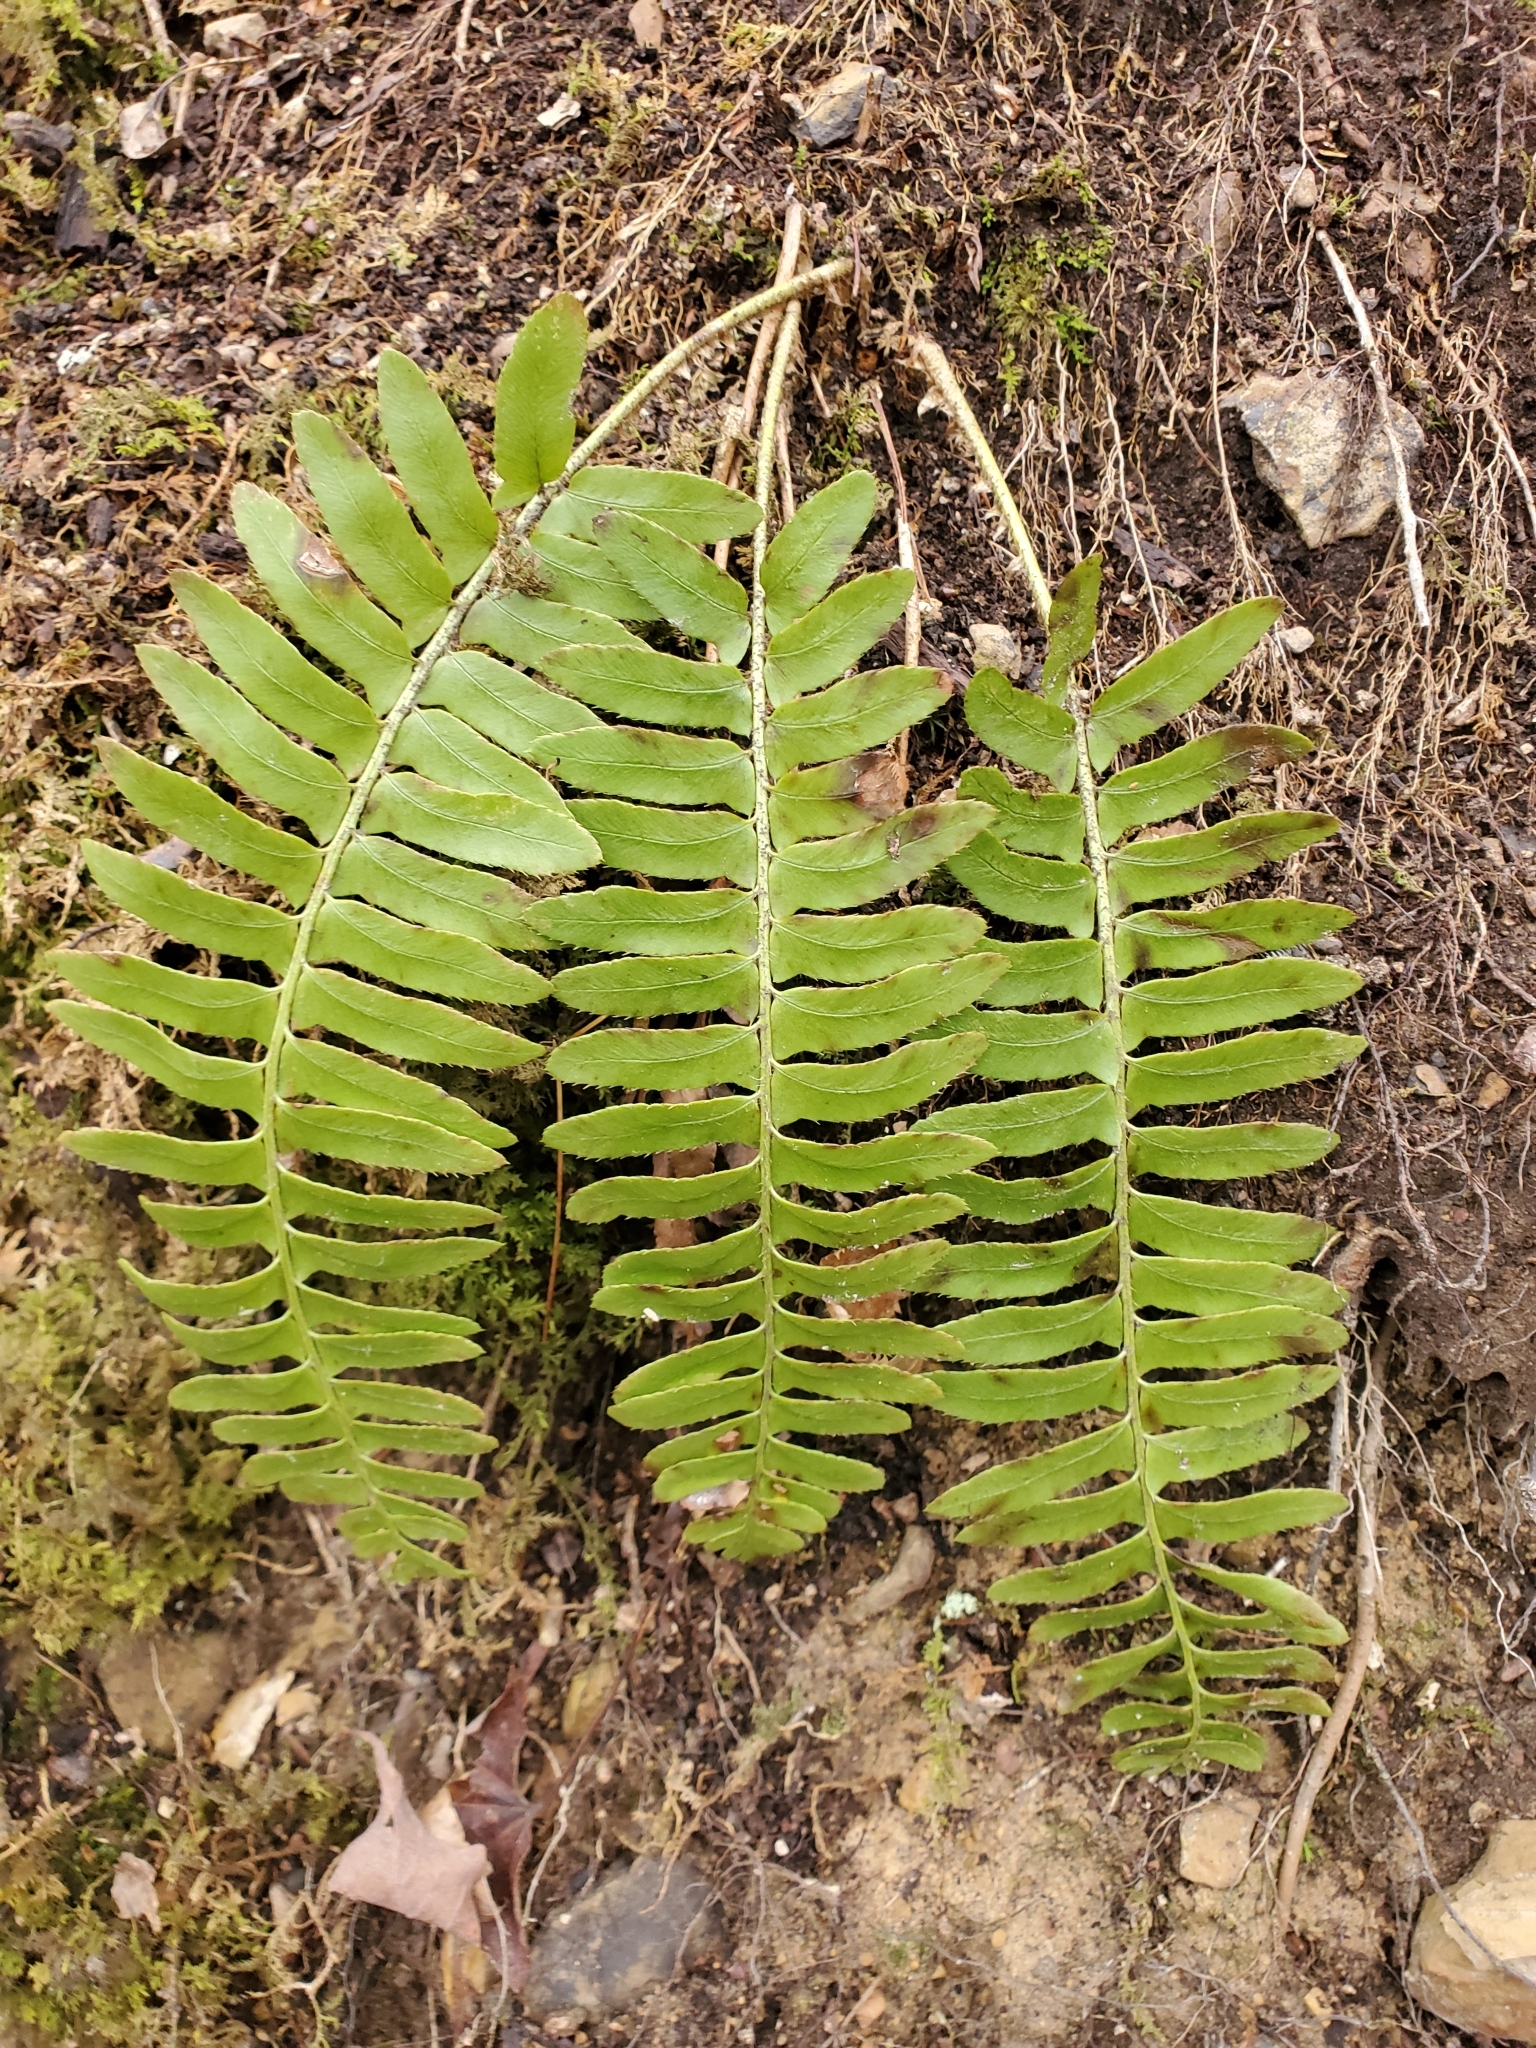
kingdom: Plantae
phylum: Tracheophyta
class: Polypodiopsida
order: Polypodiales
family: Dryopteridaceae
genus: Polystichum
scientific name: Polystichum acrostichoides
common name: Christmas fern
